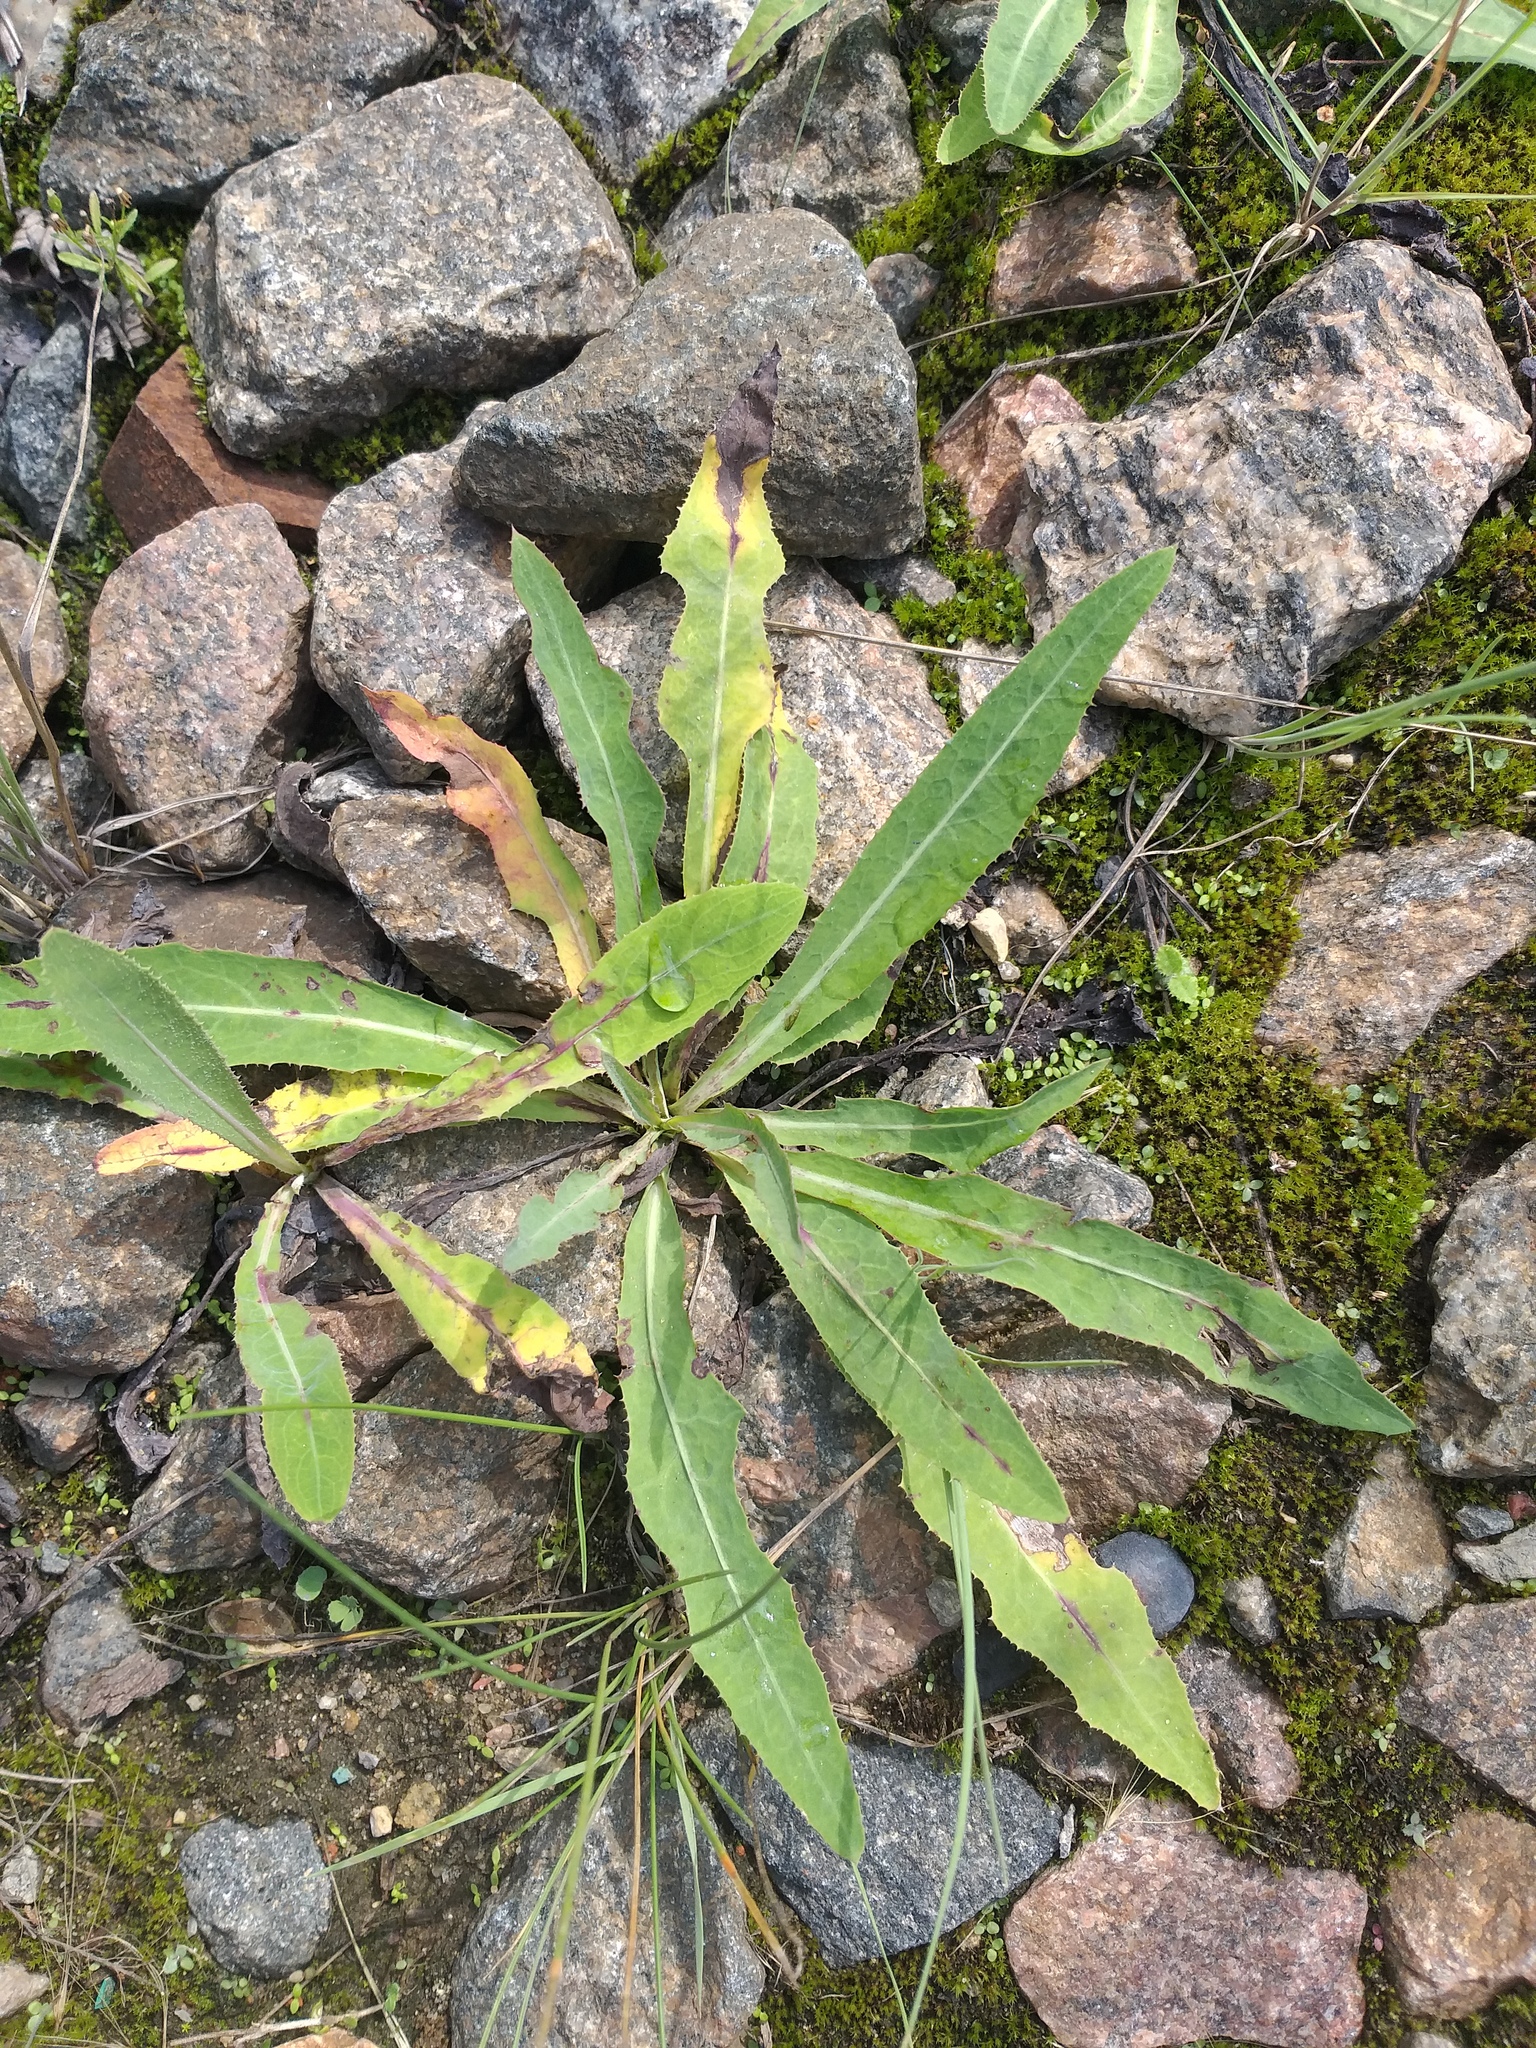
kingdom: Plantae
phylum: Tracheophyta
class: Magnoliopsida
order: Asterales
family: Asteraceae
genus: Sonchus
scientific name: Sonchus arvensis
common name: Perennial sow-thistle
